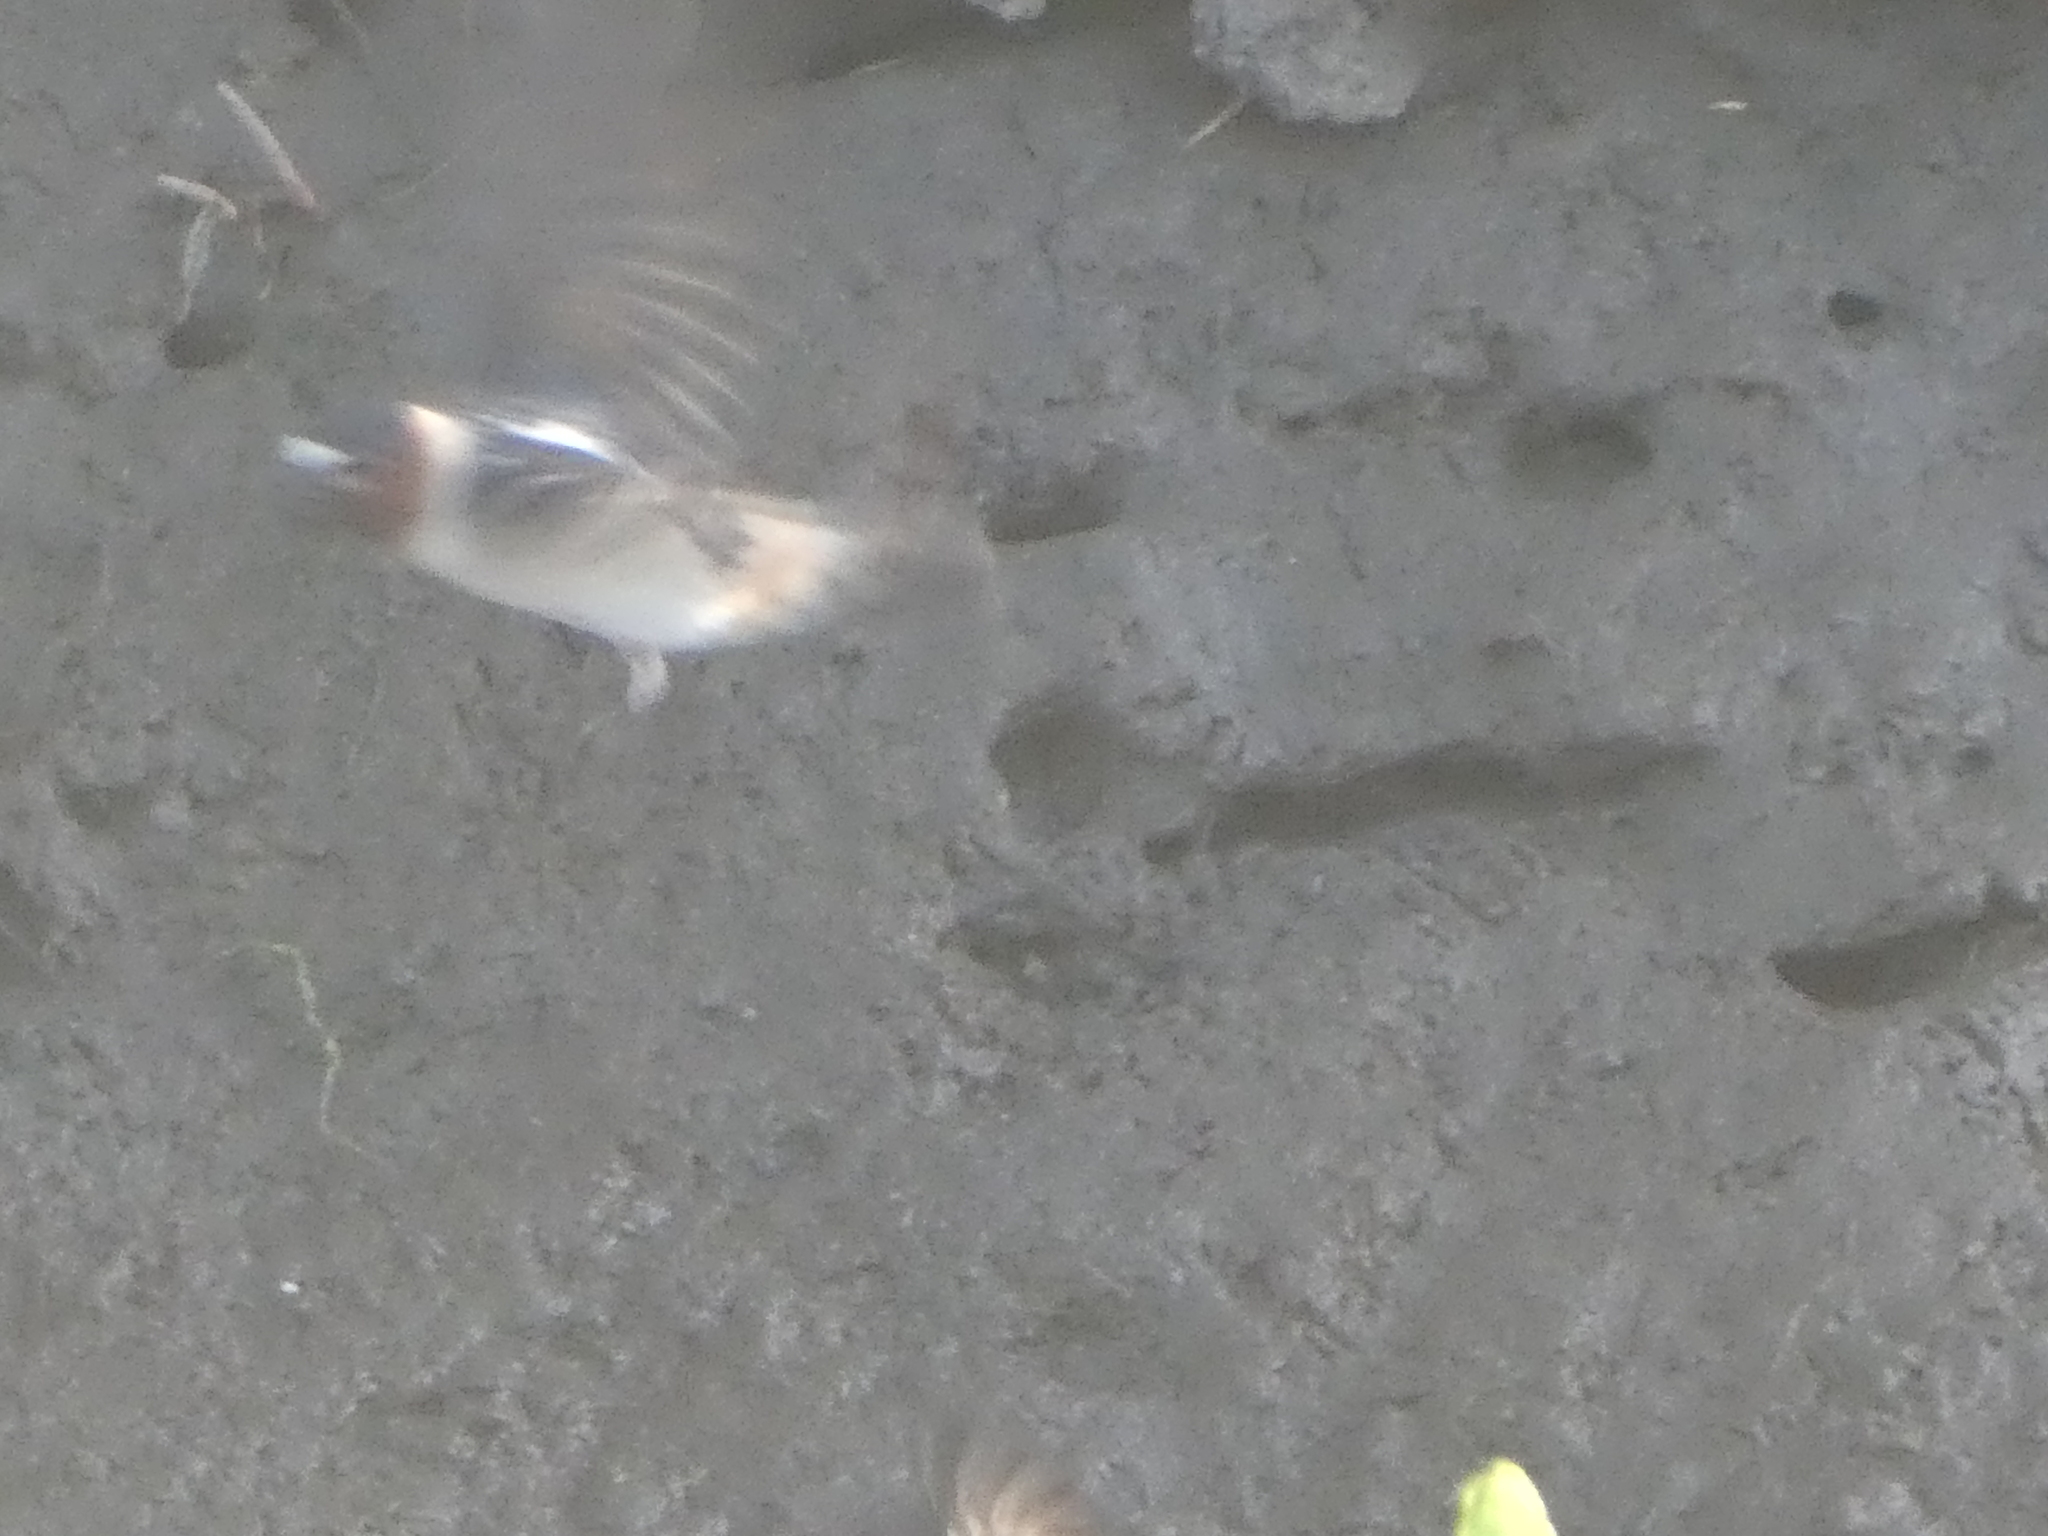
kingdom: Animalia
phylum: Chordata
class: Aves
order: Passeriformes
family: Hirundinidae
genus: Petrochelidon
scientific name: Petrochelidon pyrrhonota
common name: American cliff swallow
